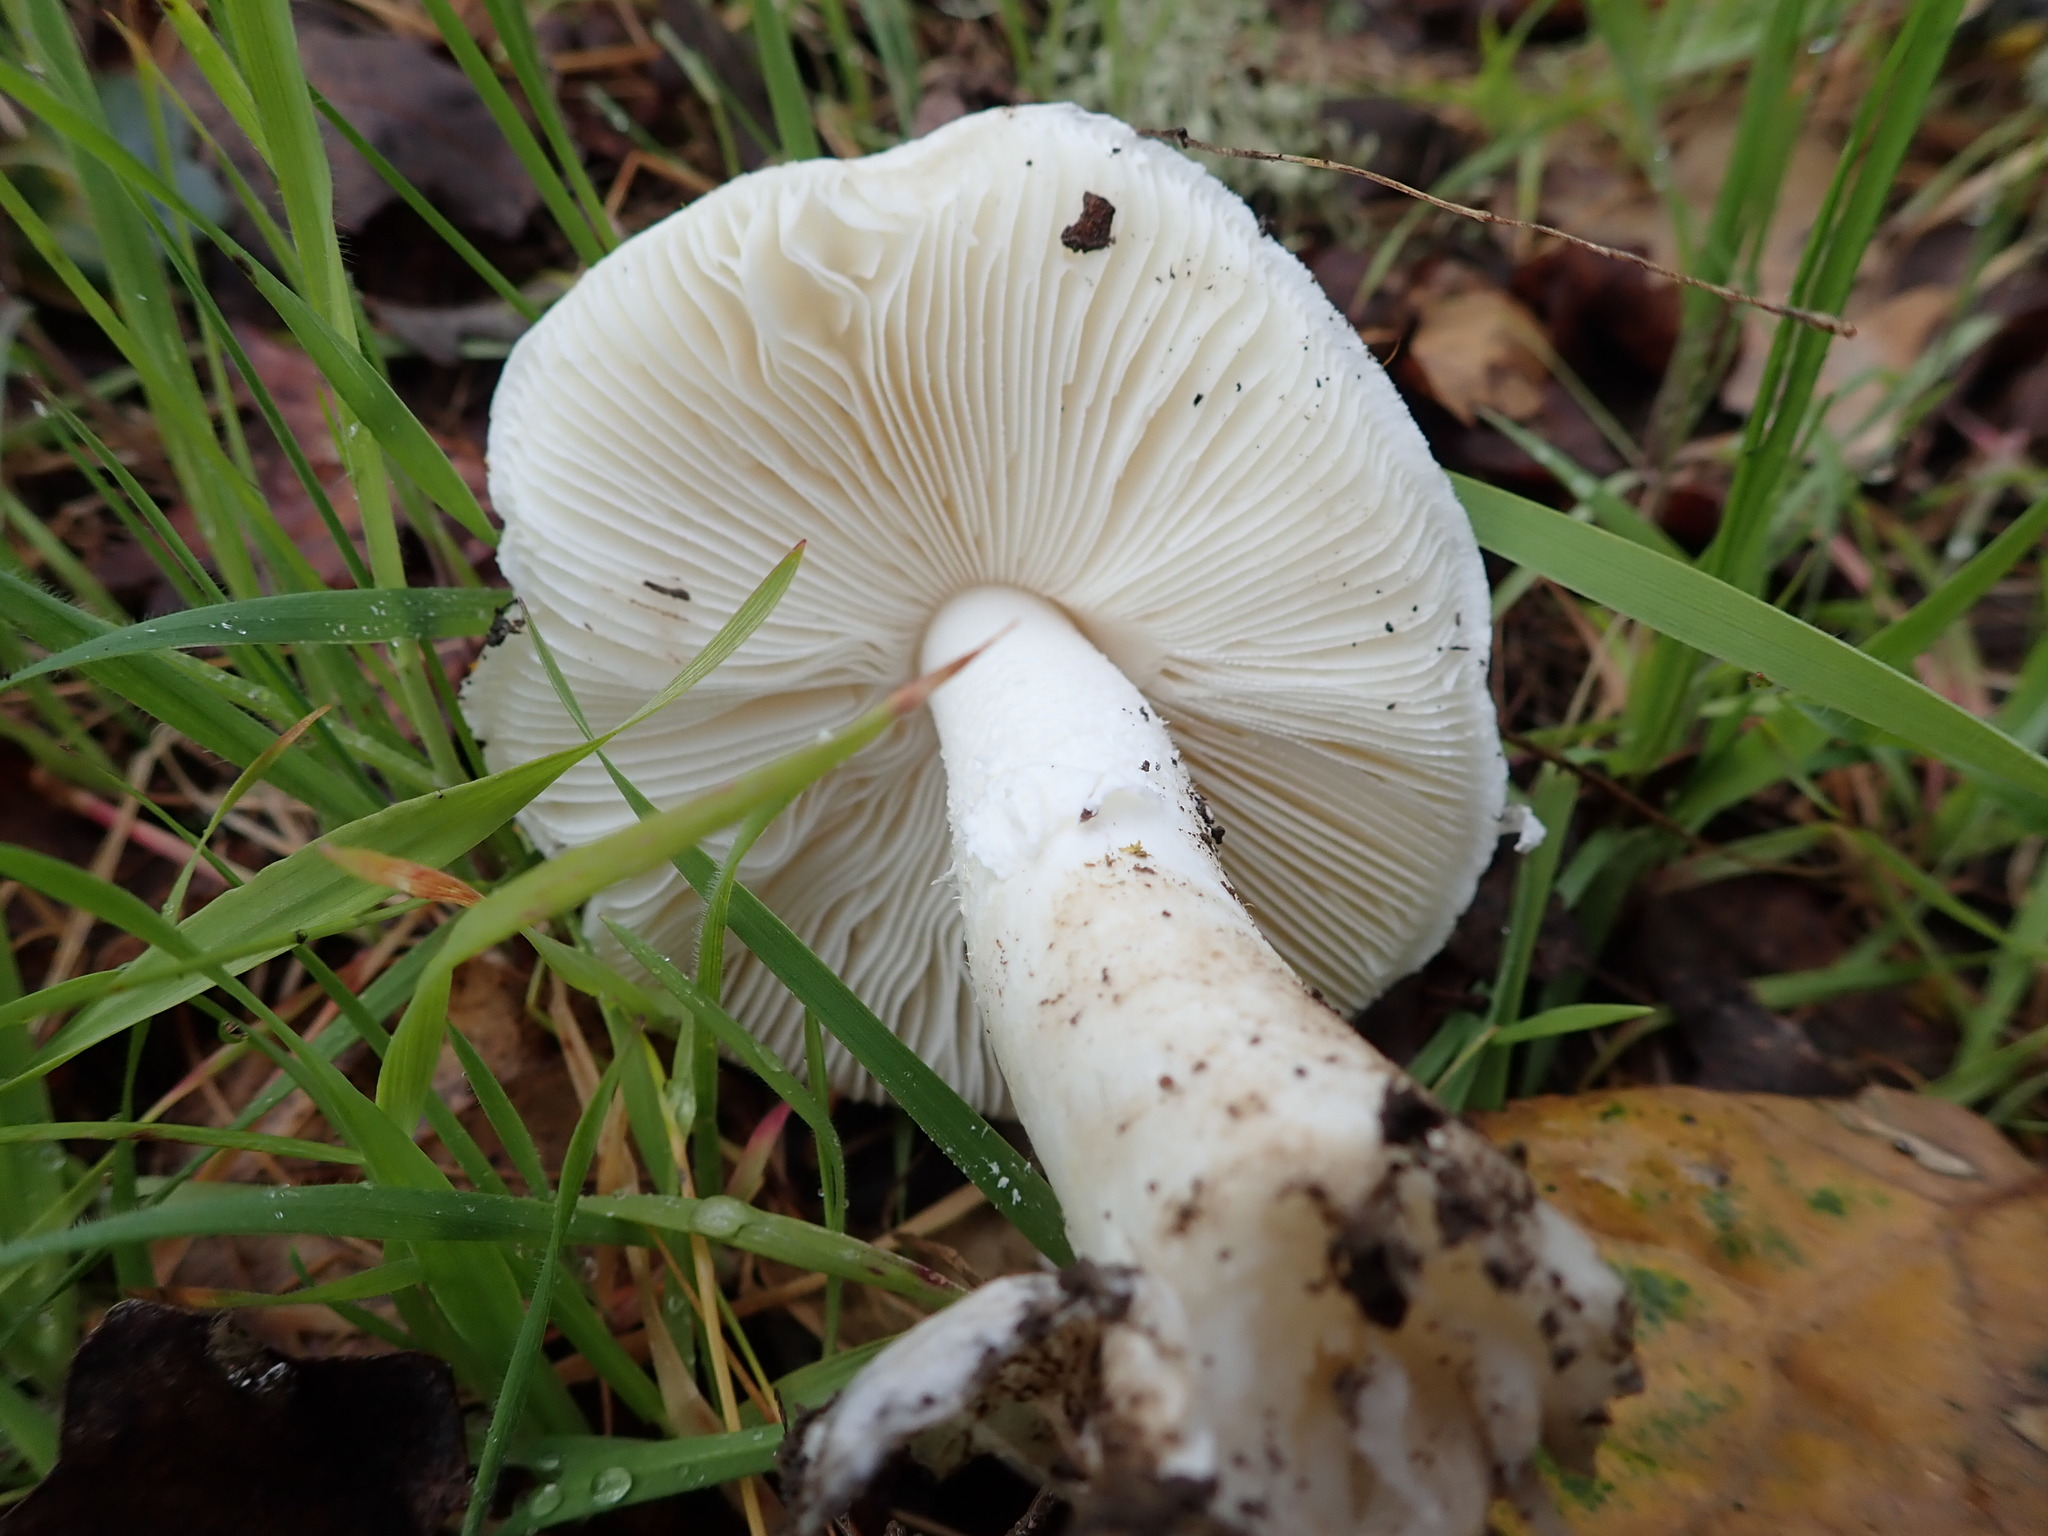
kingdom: Fungi
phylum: Basidiomycota
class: Agaricomycetes
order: Agaricales
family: Amanitaceae
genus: Amanita
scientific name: Amanita ocreata
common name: Western destroying angel
